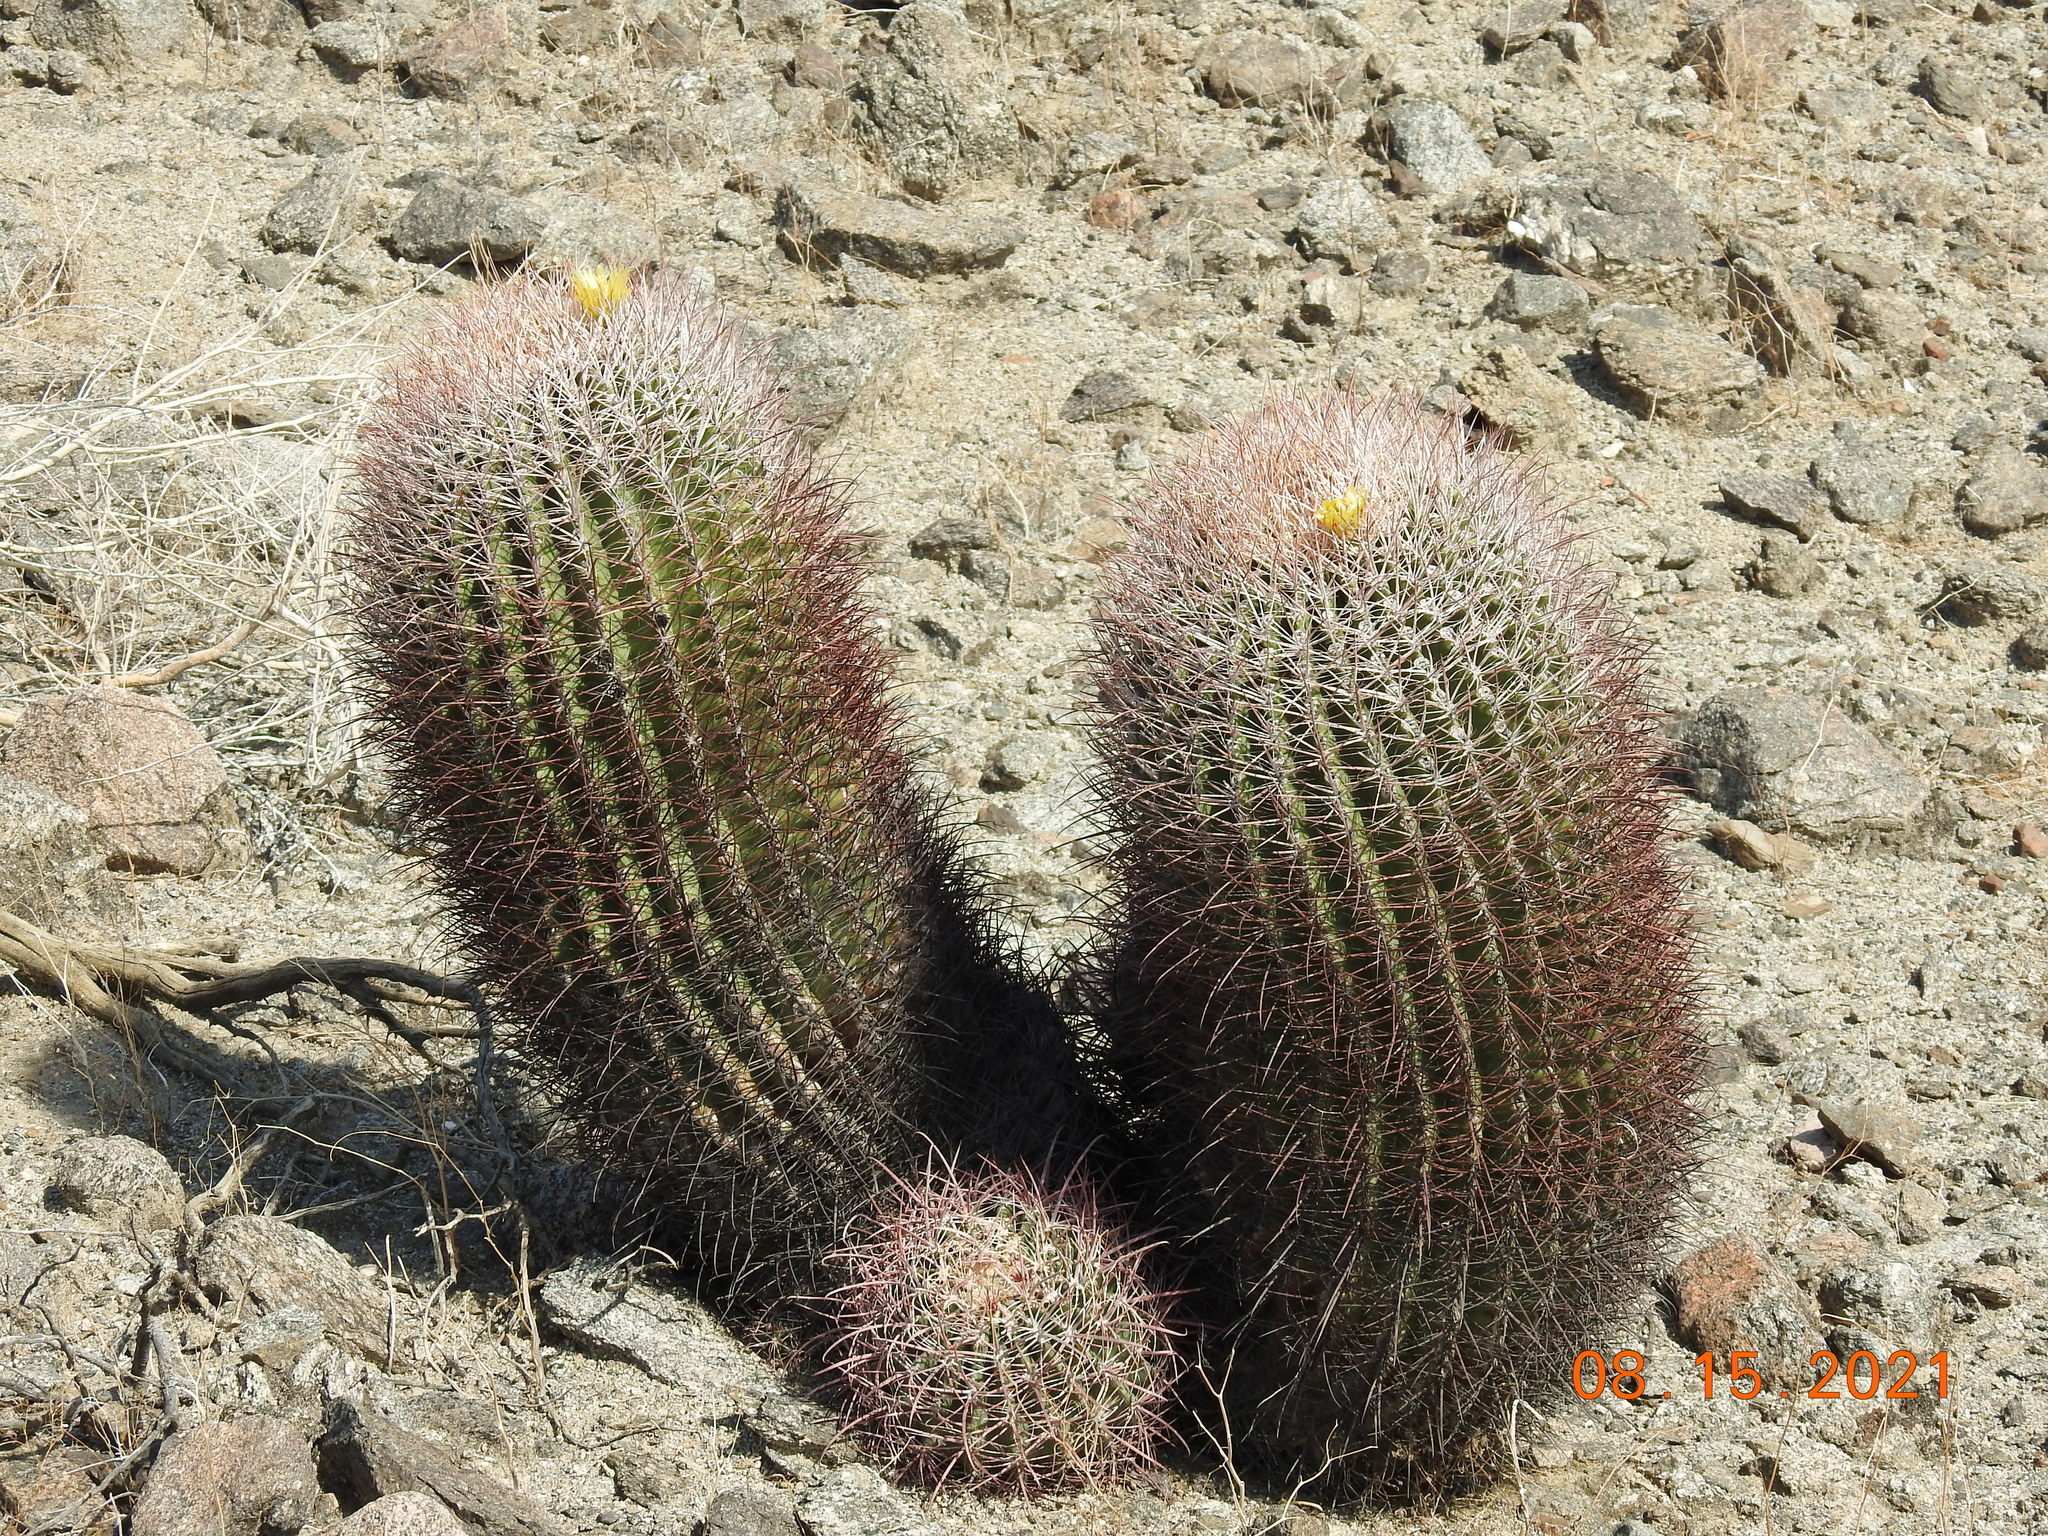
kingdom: Plantae
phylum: Tracheophyta
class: Magnoliopsida
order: Caryophyllales
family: Cactaceae
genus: Ferocactus
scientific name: Ferocactus cylindraceus
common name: California barrel cactus
